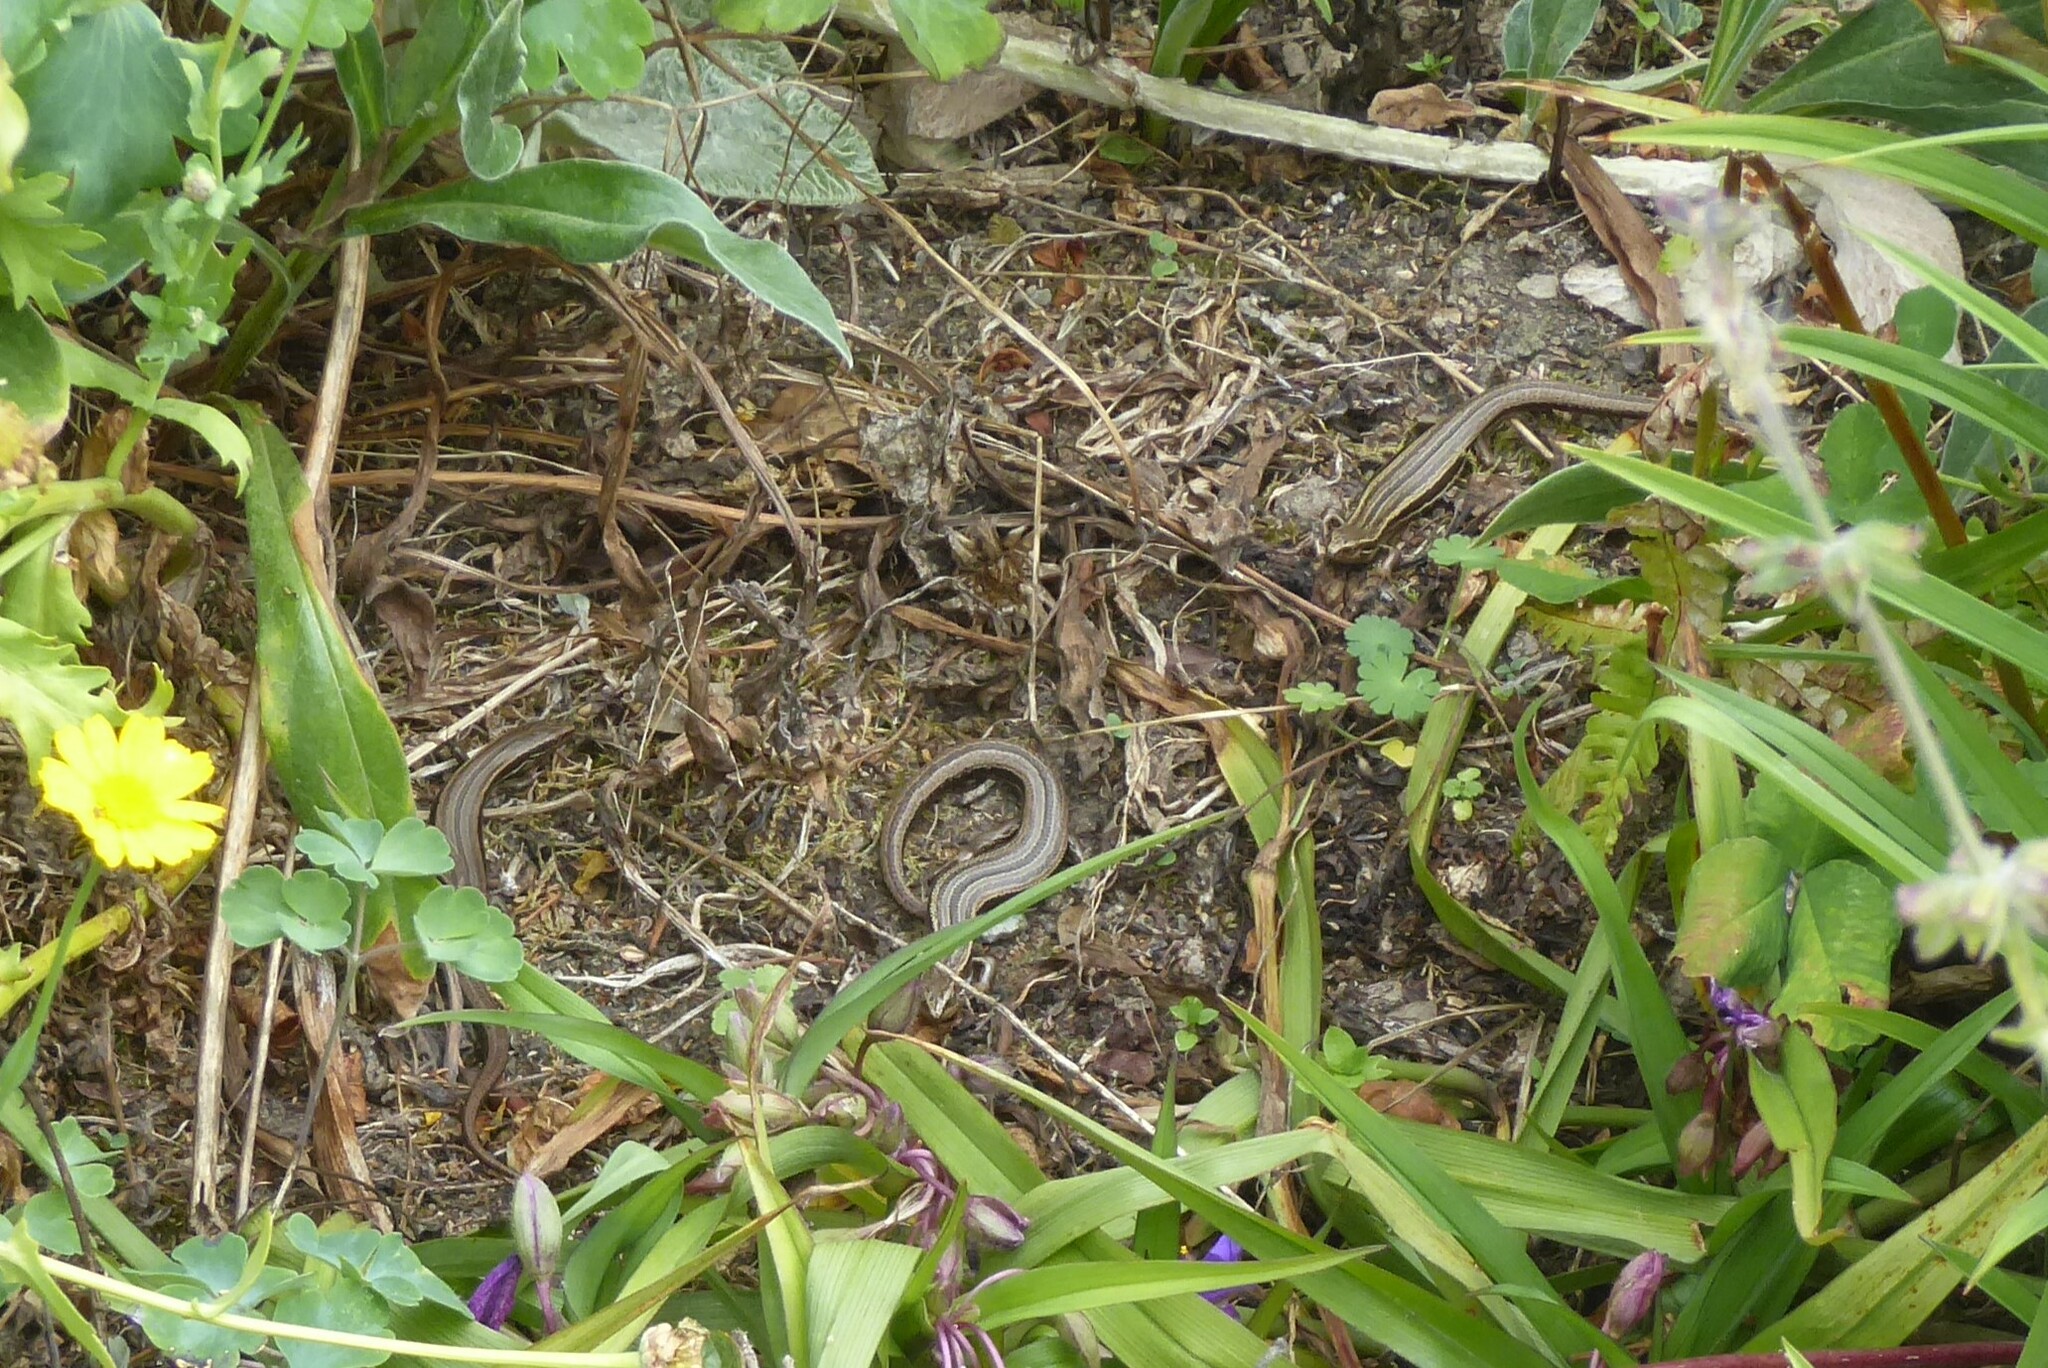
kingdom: Animalia
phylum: Chordata
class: Squamata
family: Scincidae
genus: Oligosoma
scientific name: Oligosoma polychroma
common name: Common new zealand skink
